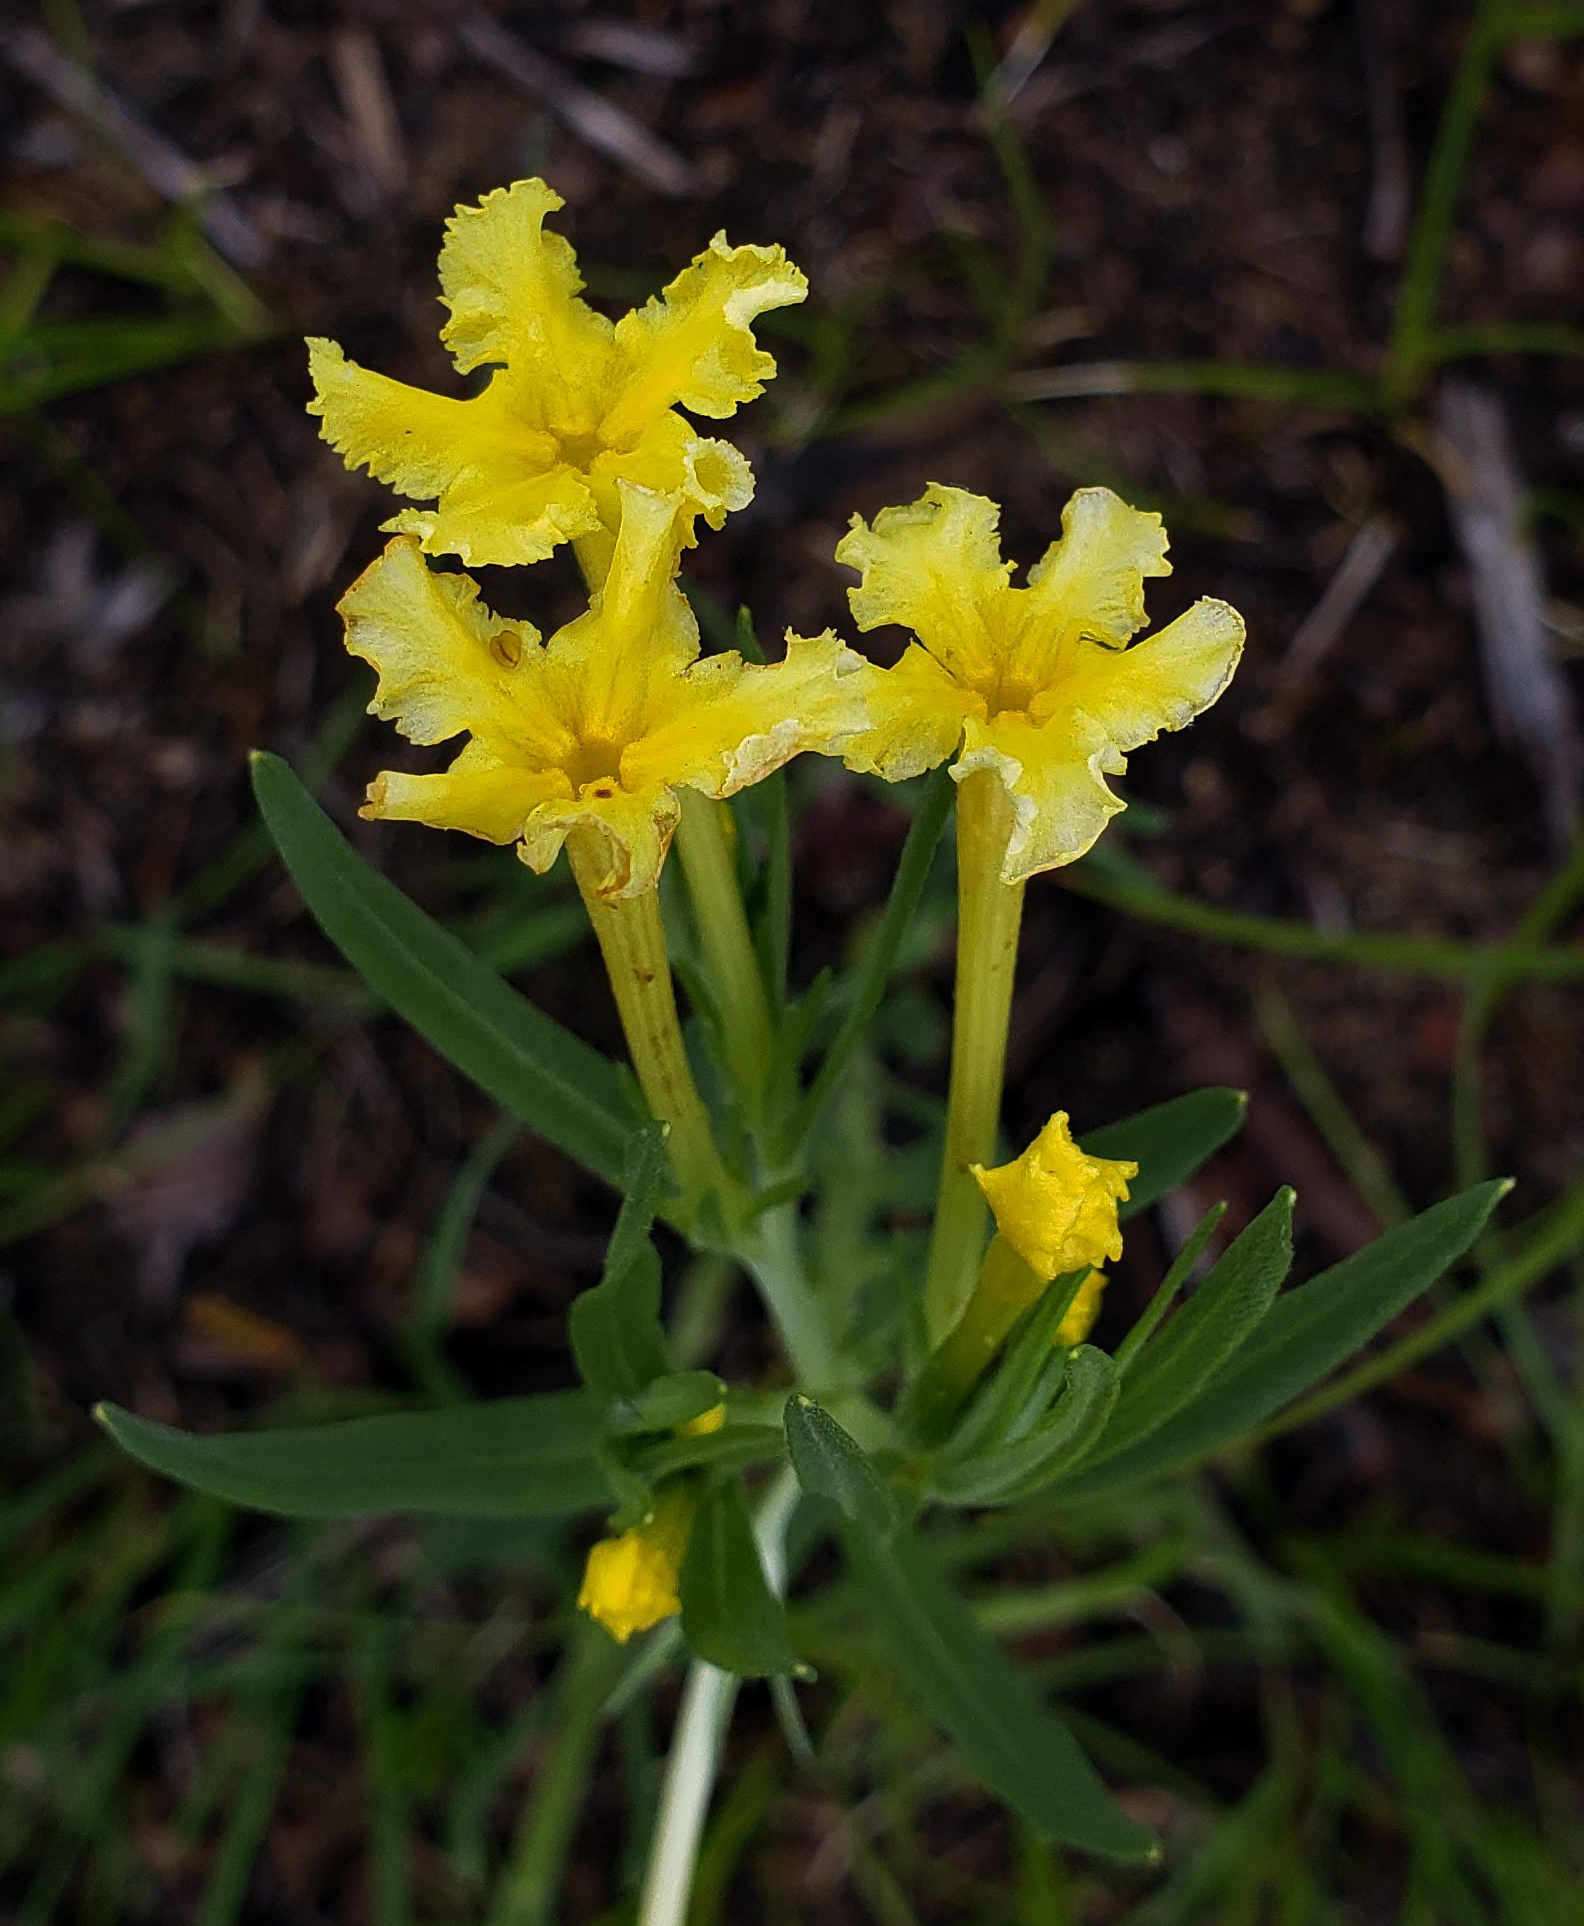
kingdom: Plantae
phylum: Tracheophyta
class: Magnoliopsida
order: Boraginales
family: Boraginaceae
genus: Lithospermum
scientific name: Lithospermum incisum
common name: Fringed gromwell
